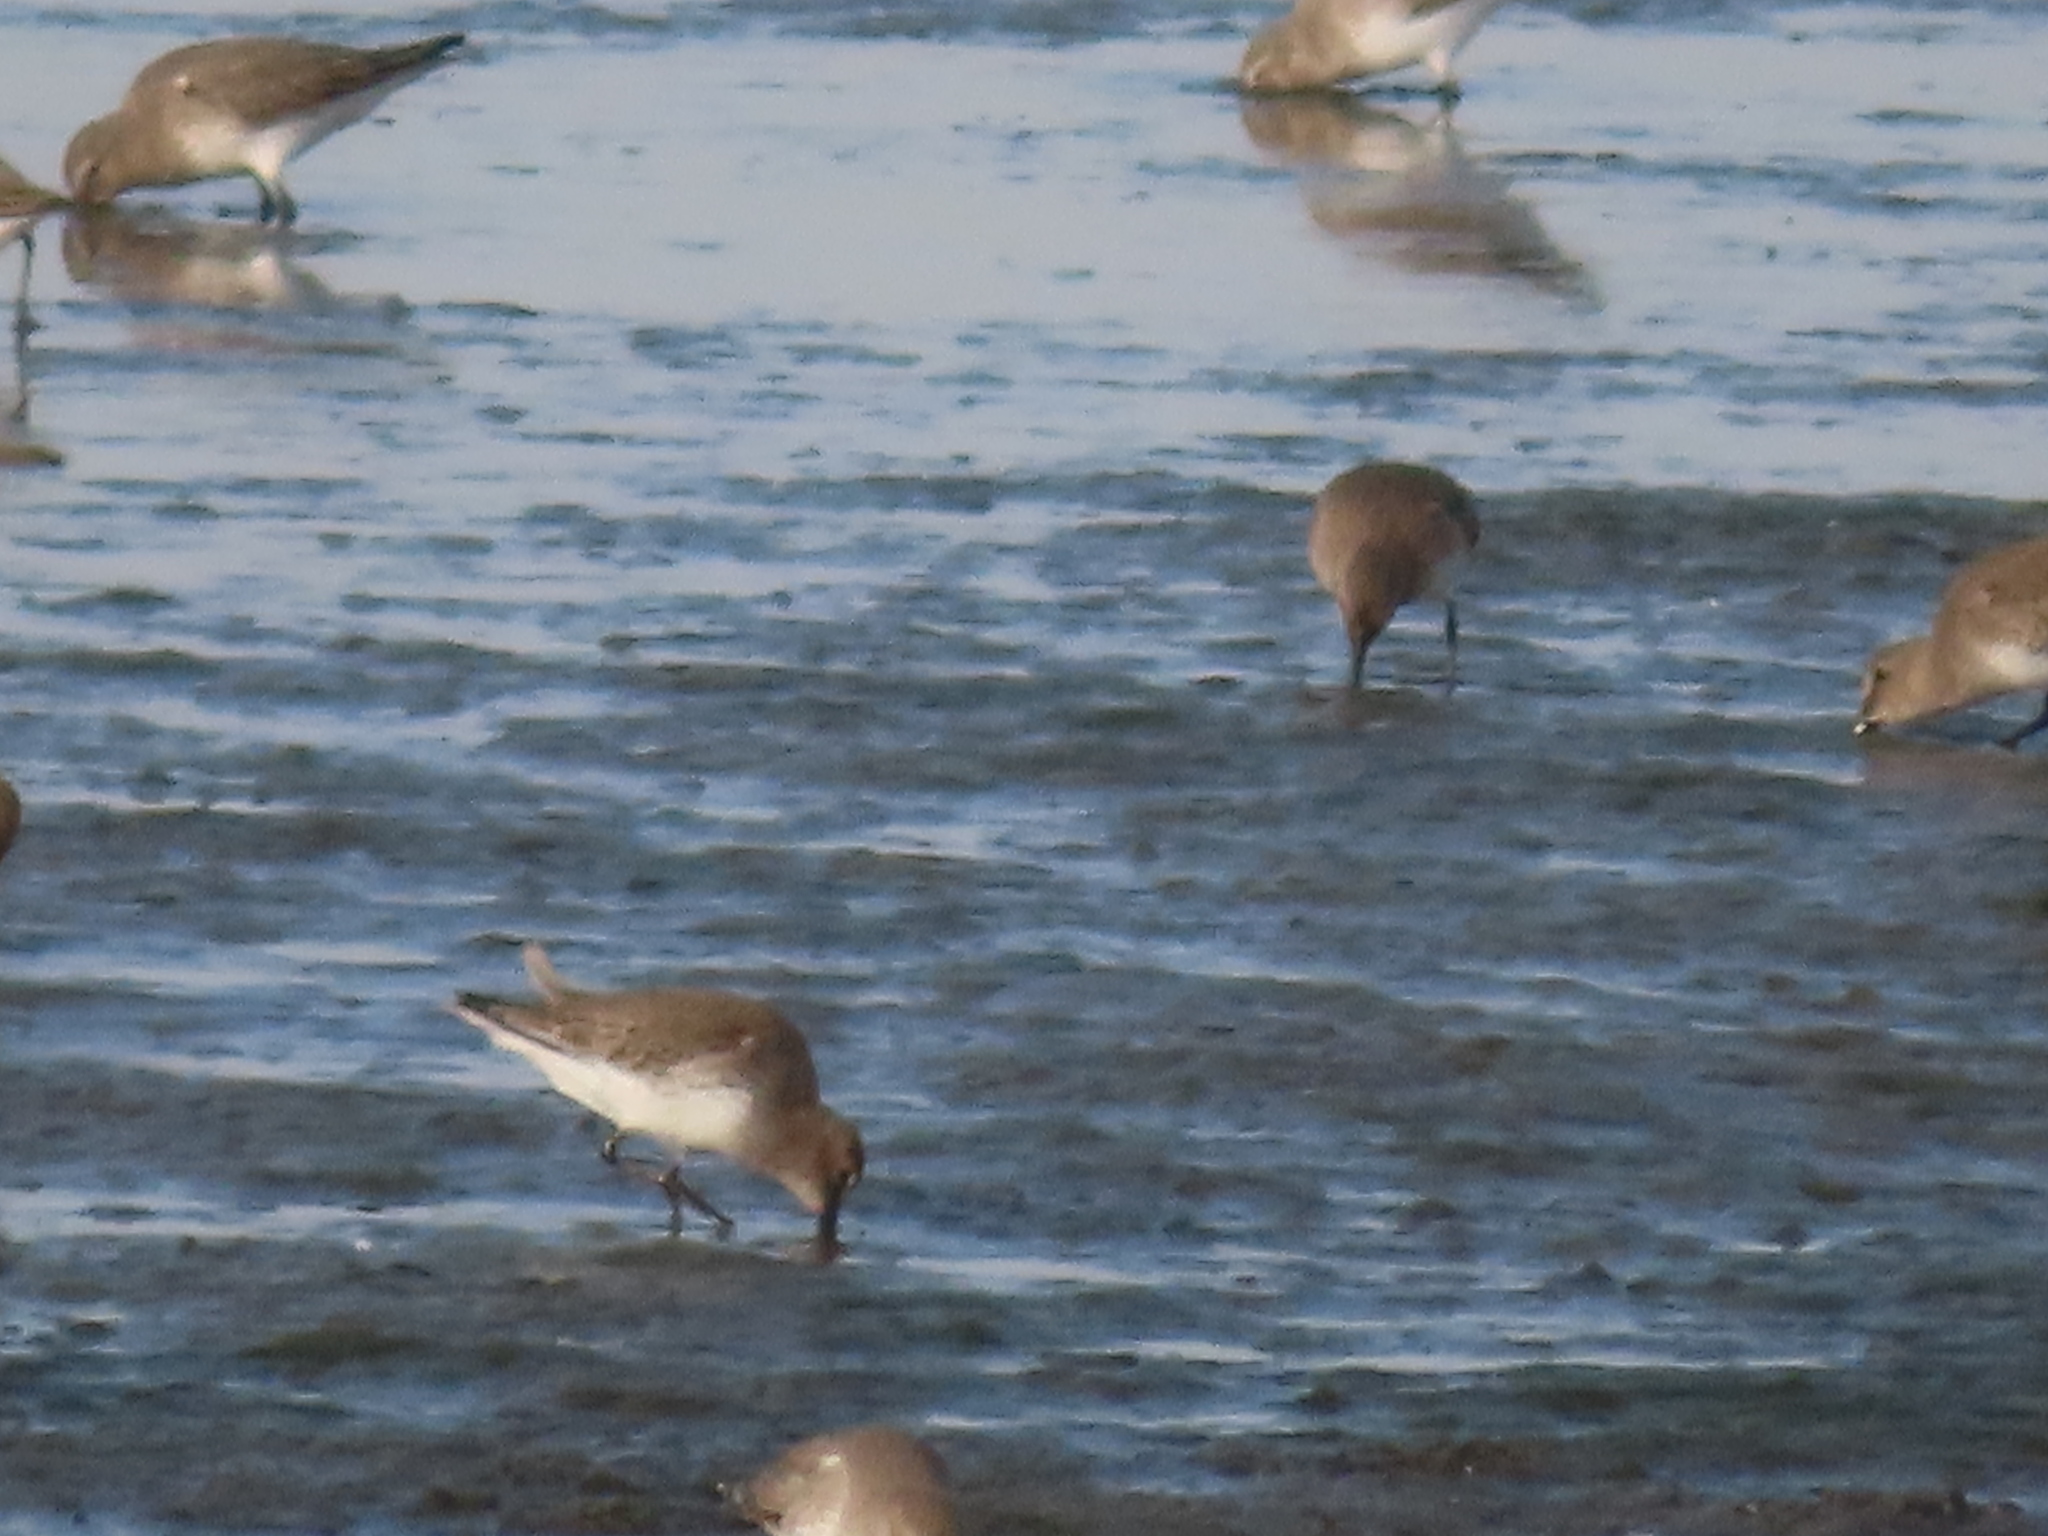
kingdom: Animalia
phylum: Chordata
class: Aves
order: Charadriiformes
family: Scolopacidae
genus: Calidris
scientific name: Calidris alpina
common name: Dunlin
